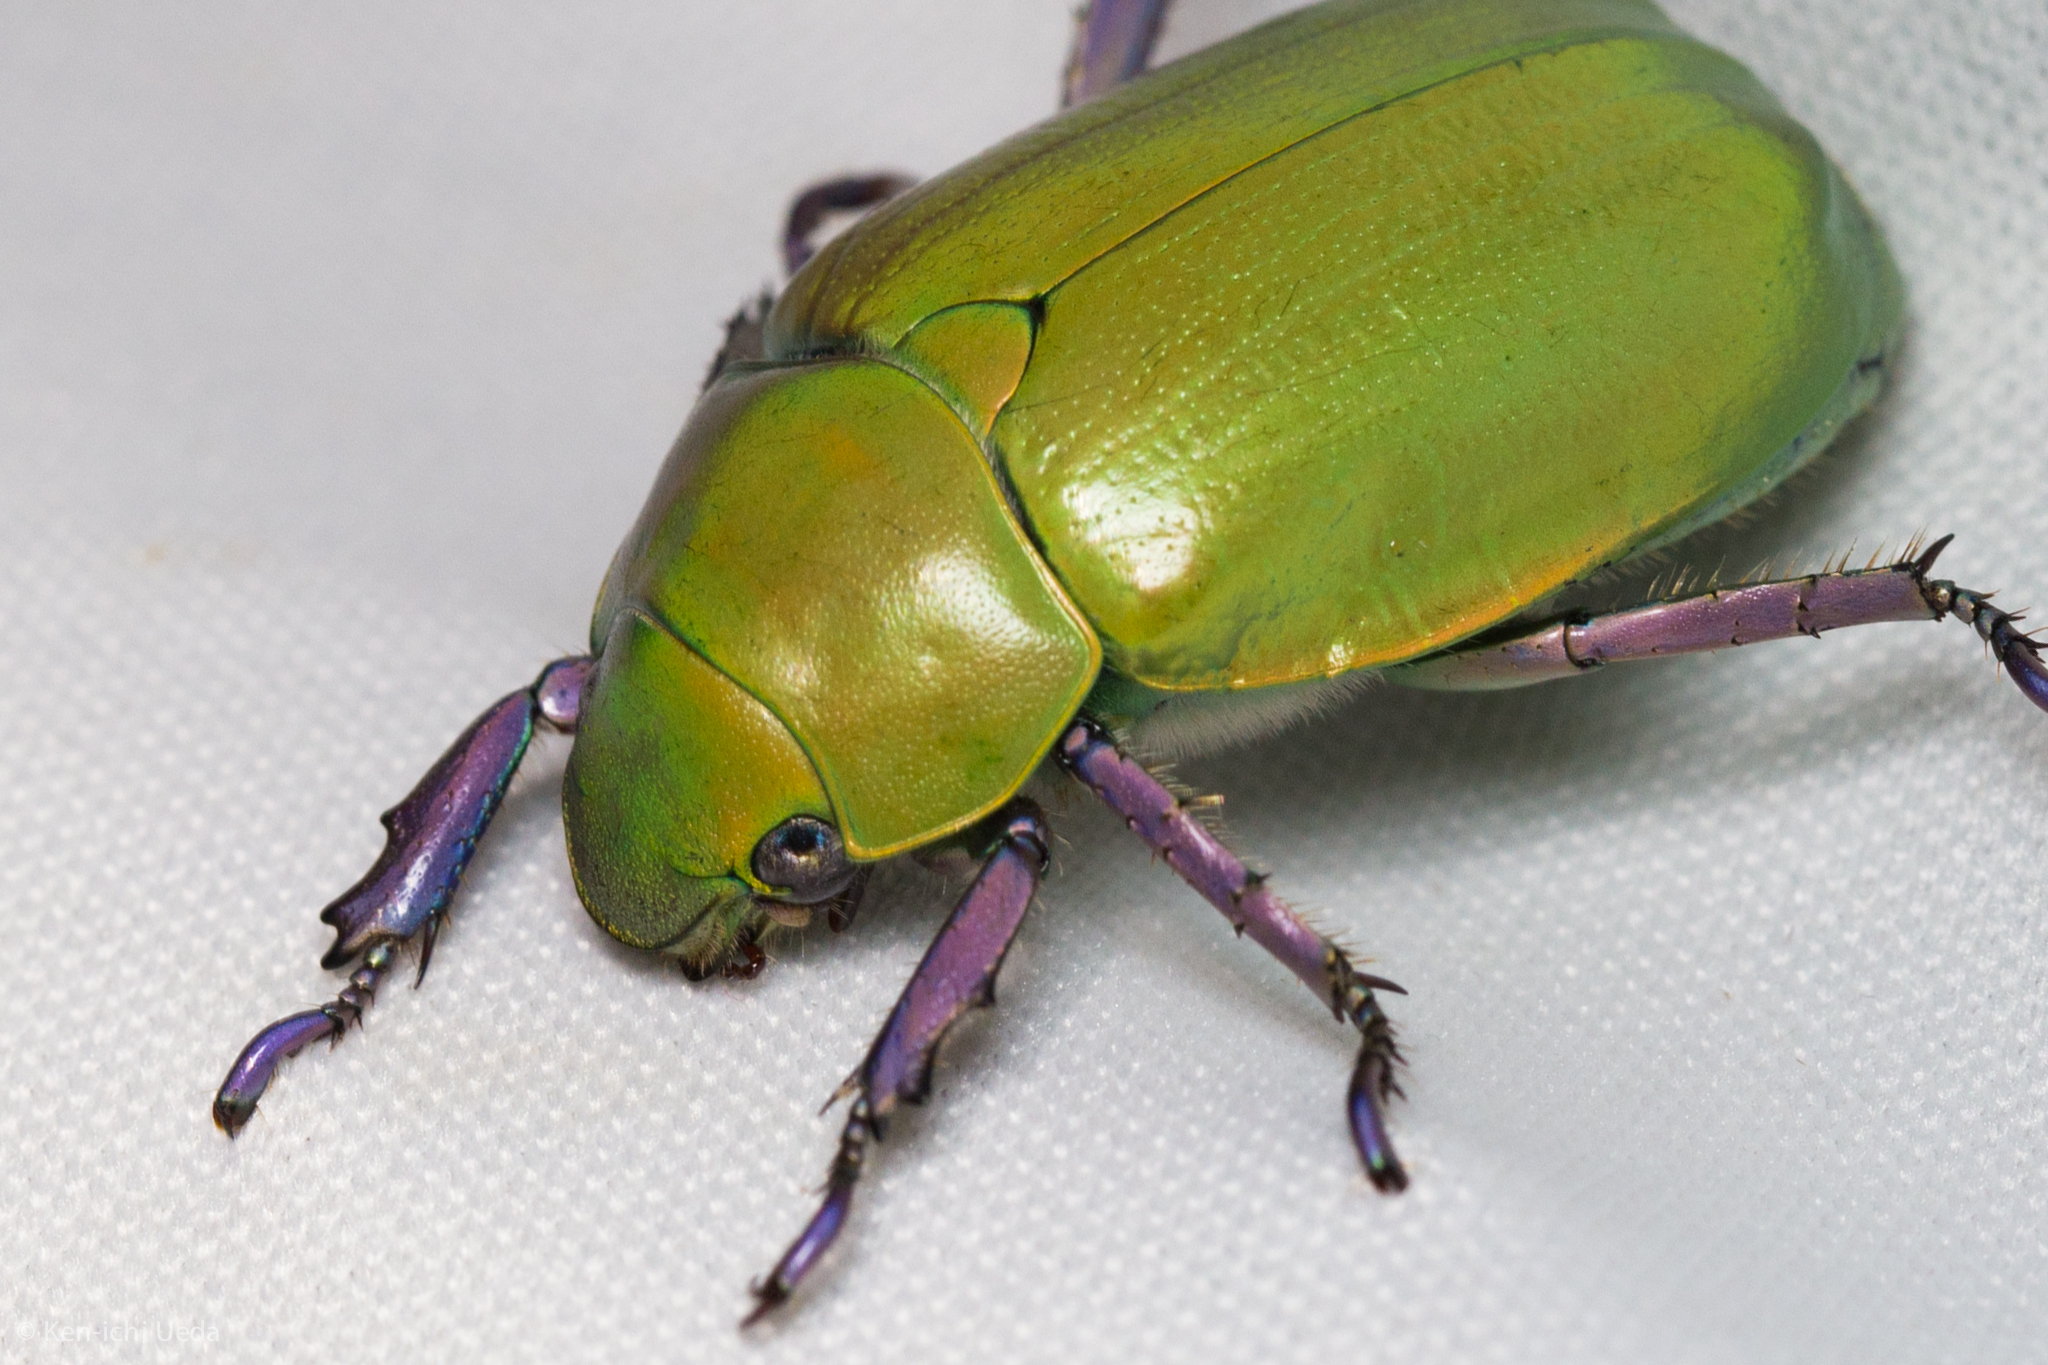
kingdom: Animalia
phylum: Arthropoda
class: Insecta
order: Coleoptera
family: Scarabaeidae
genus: Chrysina
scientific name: Chrysina beyeri
